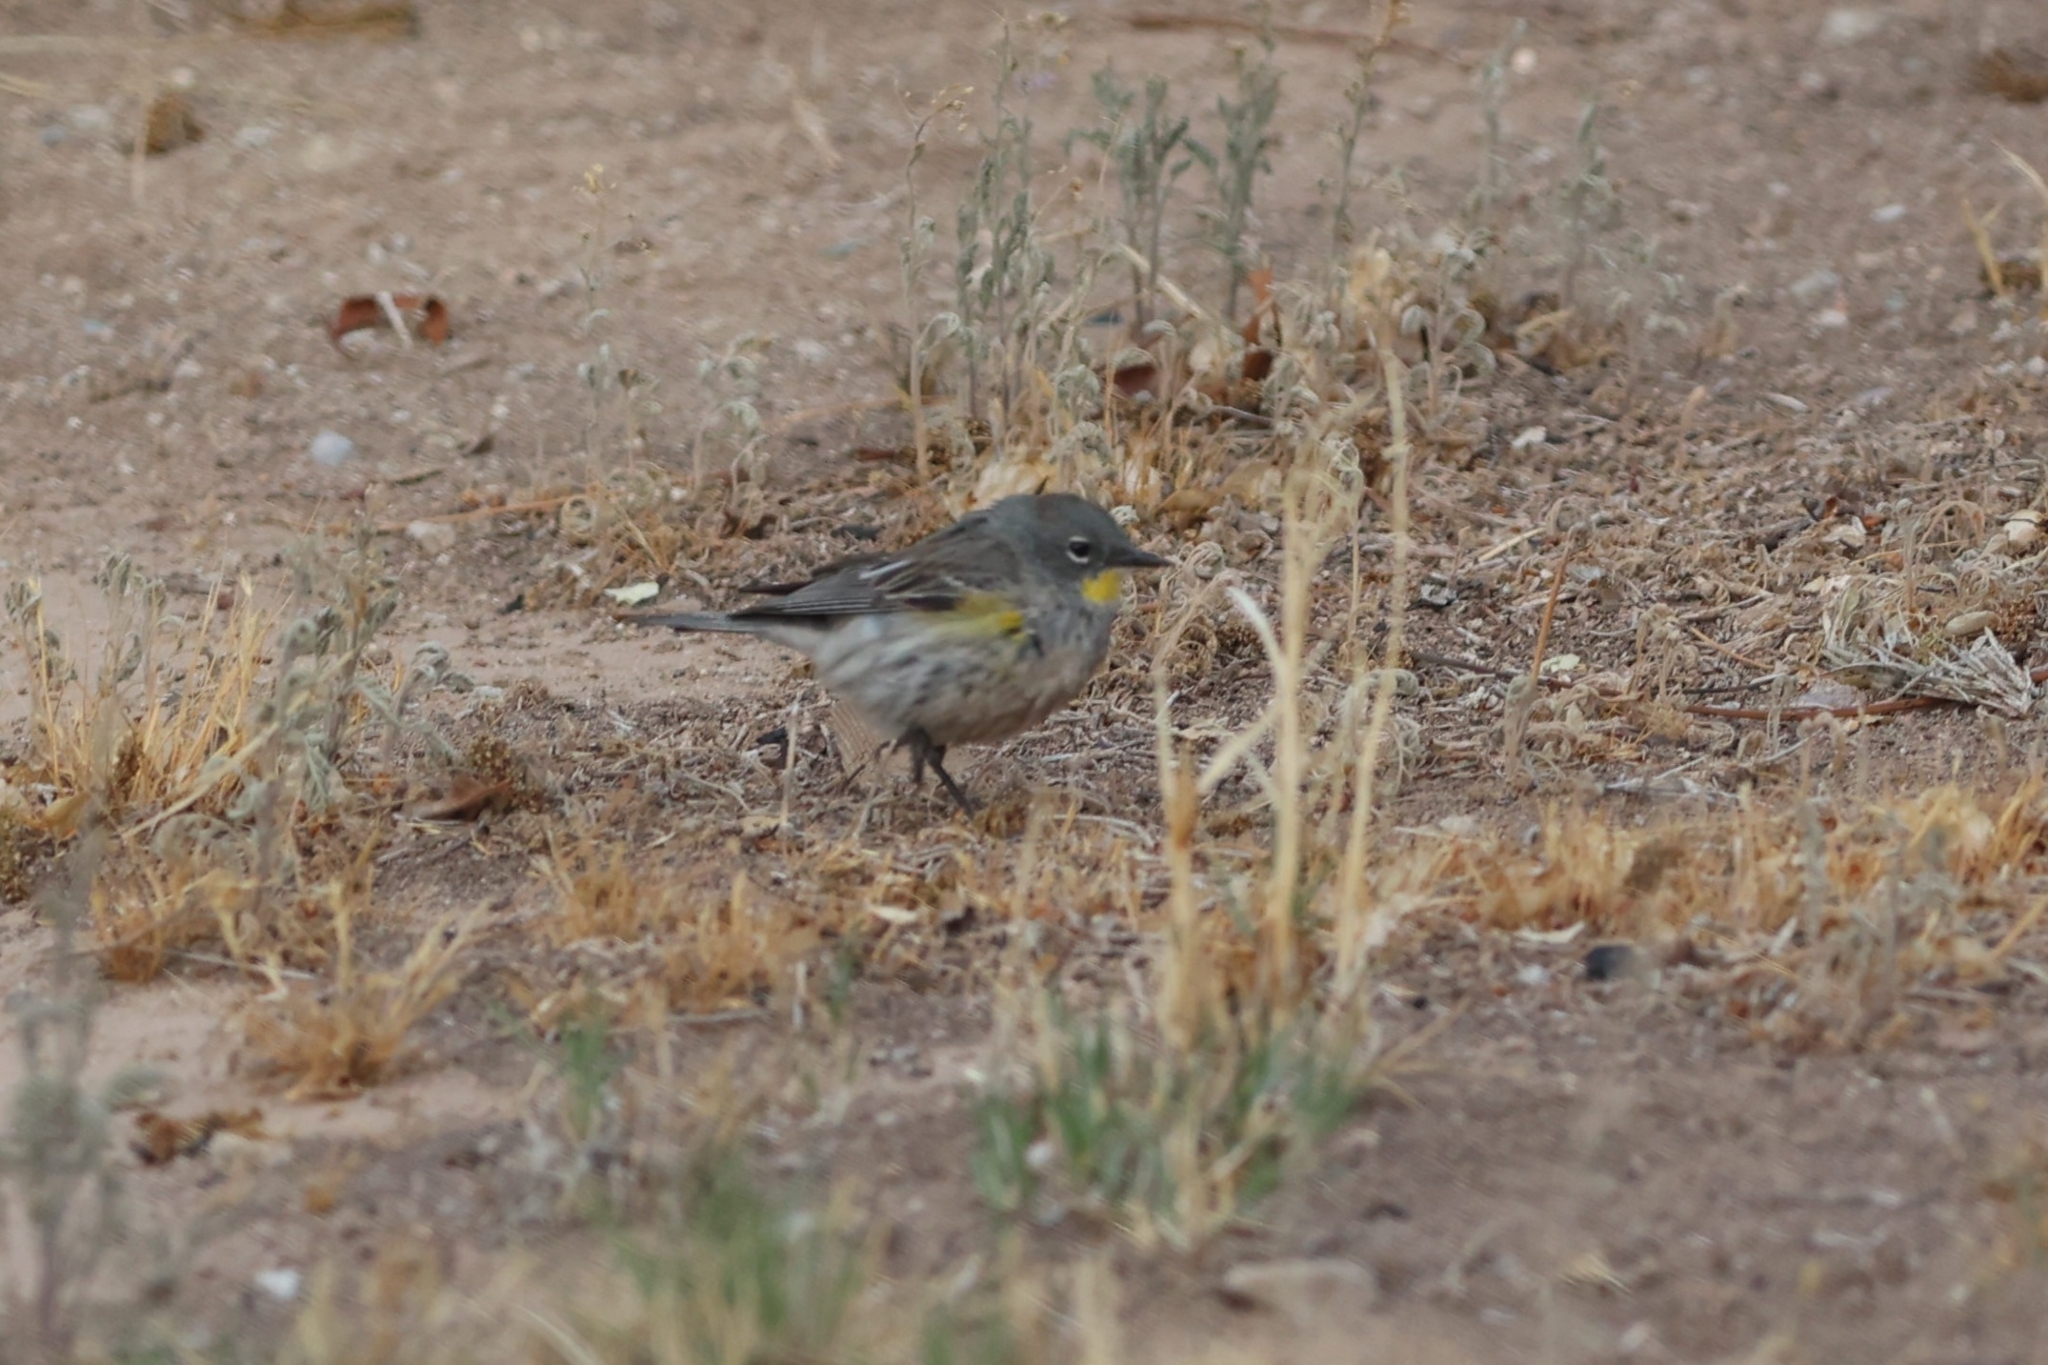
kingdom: Animalia
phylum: Chordata
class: Aves
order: Passeriformes
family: Parulidae
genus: Setophaga
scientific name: Setophaga coronata
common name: Myrtle warbler
